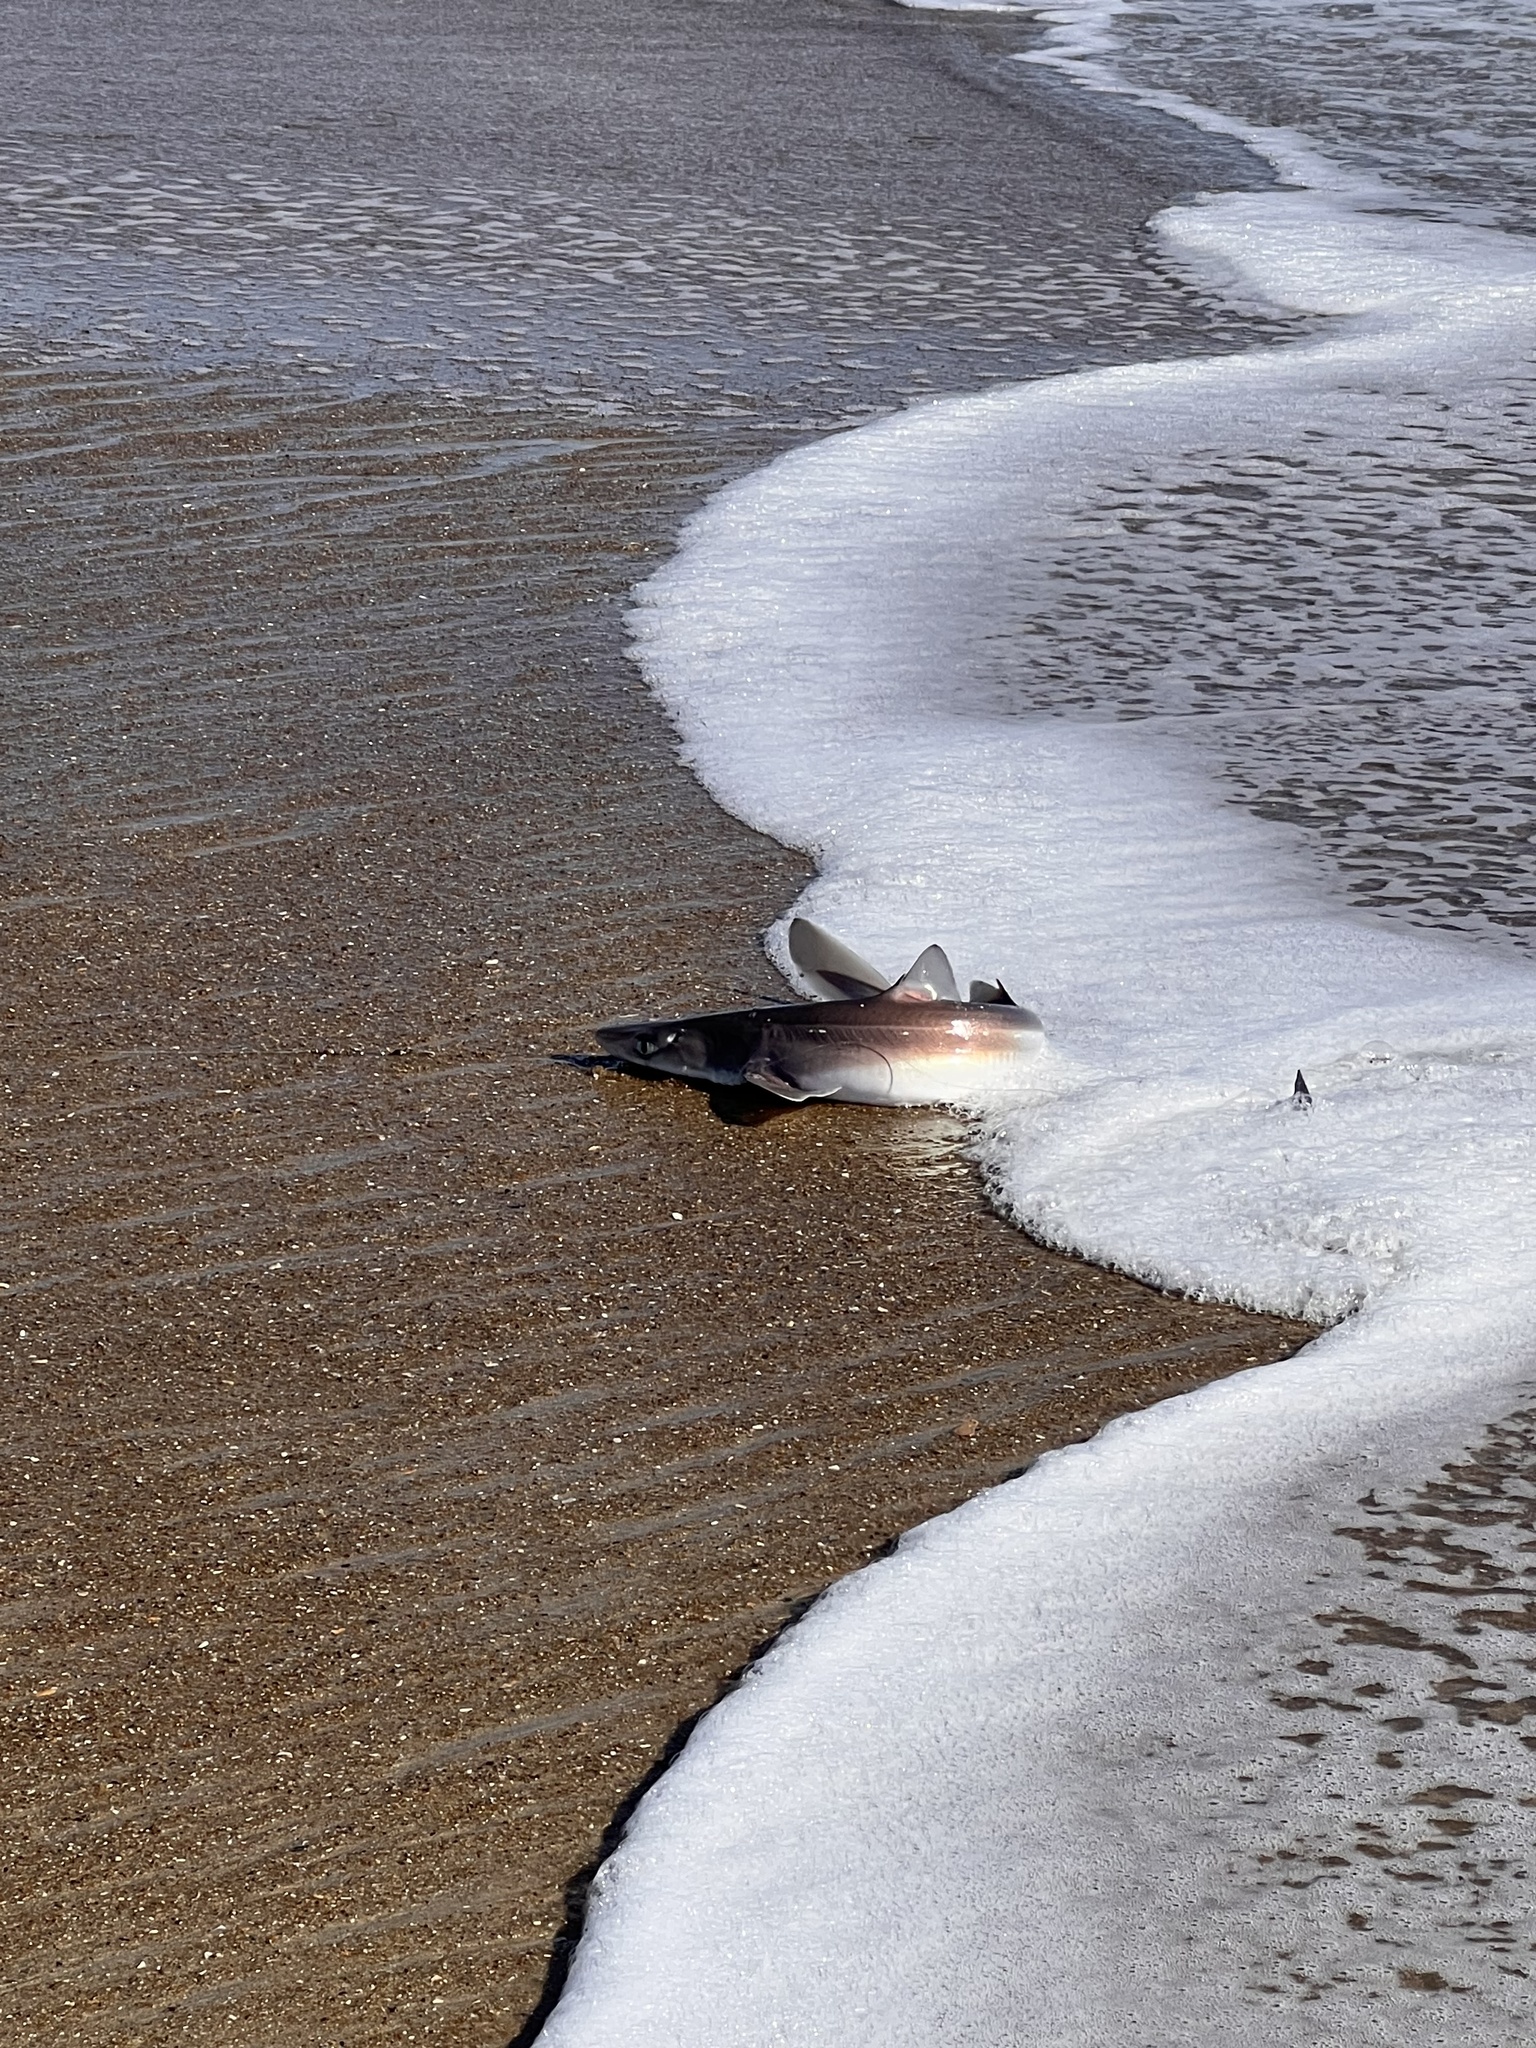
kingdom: Animalia
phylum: Chordata
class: Elasmobranchii
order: Squaliformes
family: Squalidae
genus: Squalus
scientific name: Squalus acanthias
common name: Spurdog
